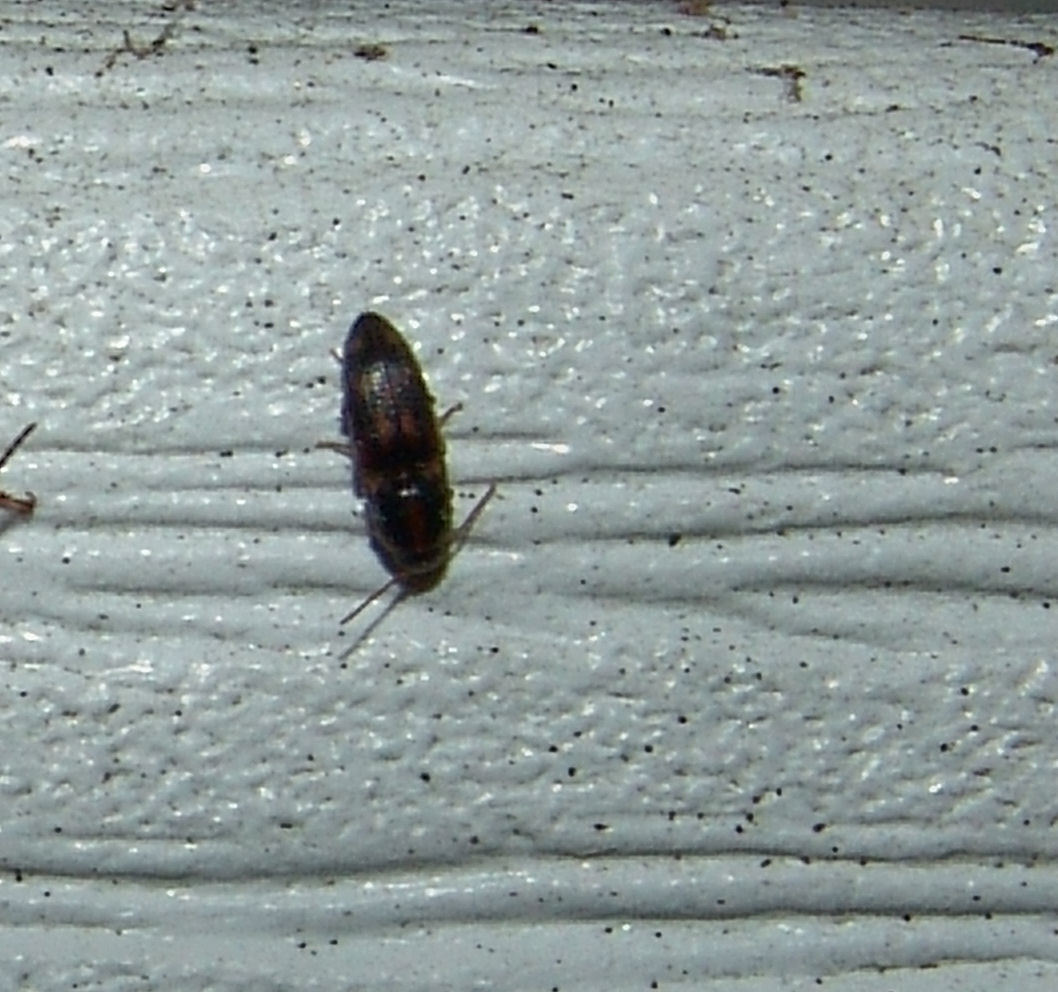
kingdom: Animalia
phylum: Arthropoda
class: Insecta
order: Coleoptera
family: Elateridae
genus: Monocrepidius
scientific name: Monocrepidius bellus
